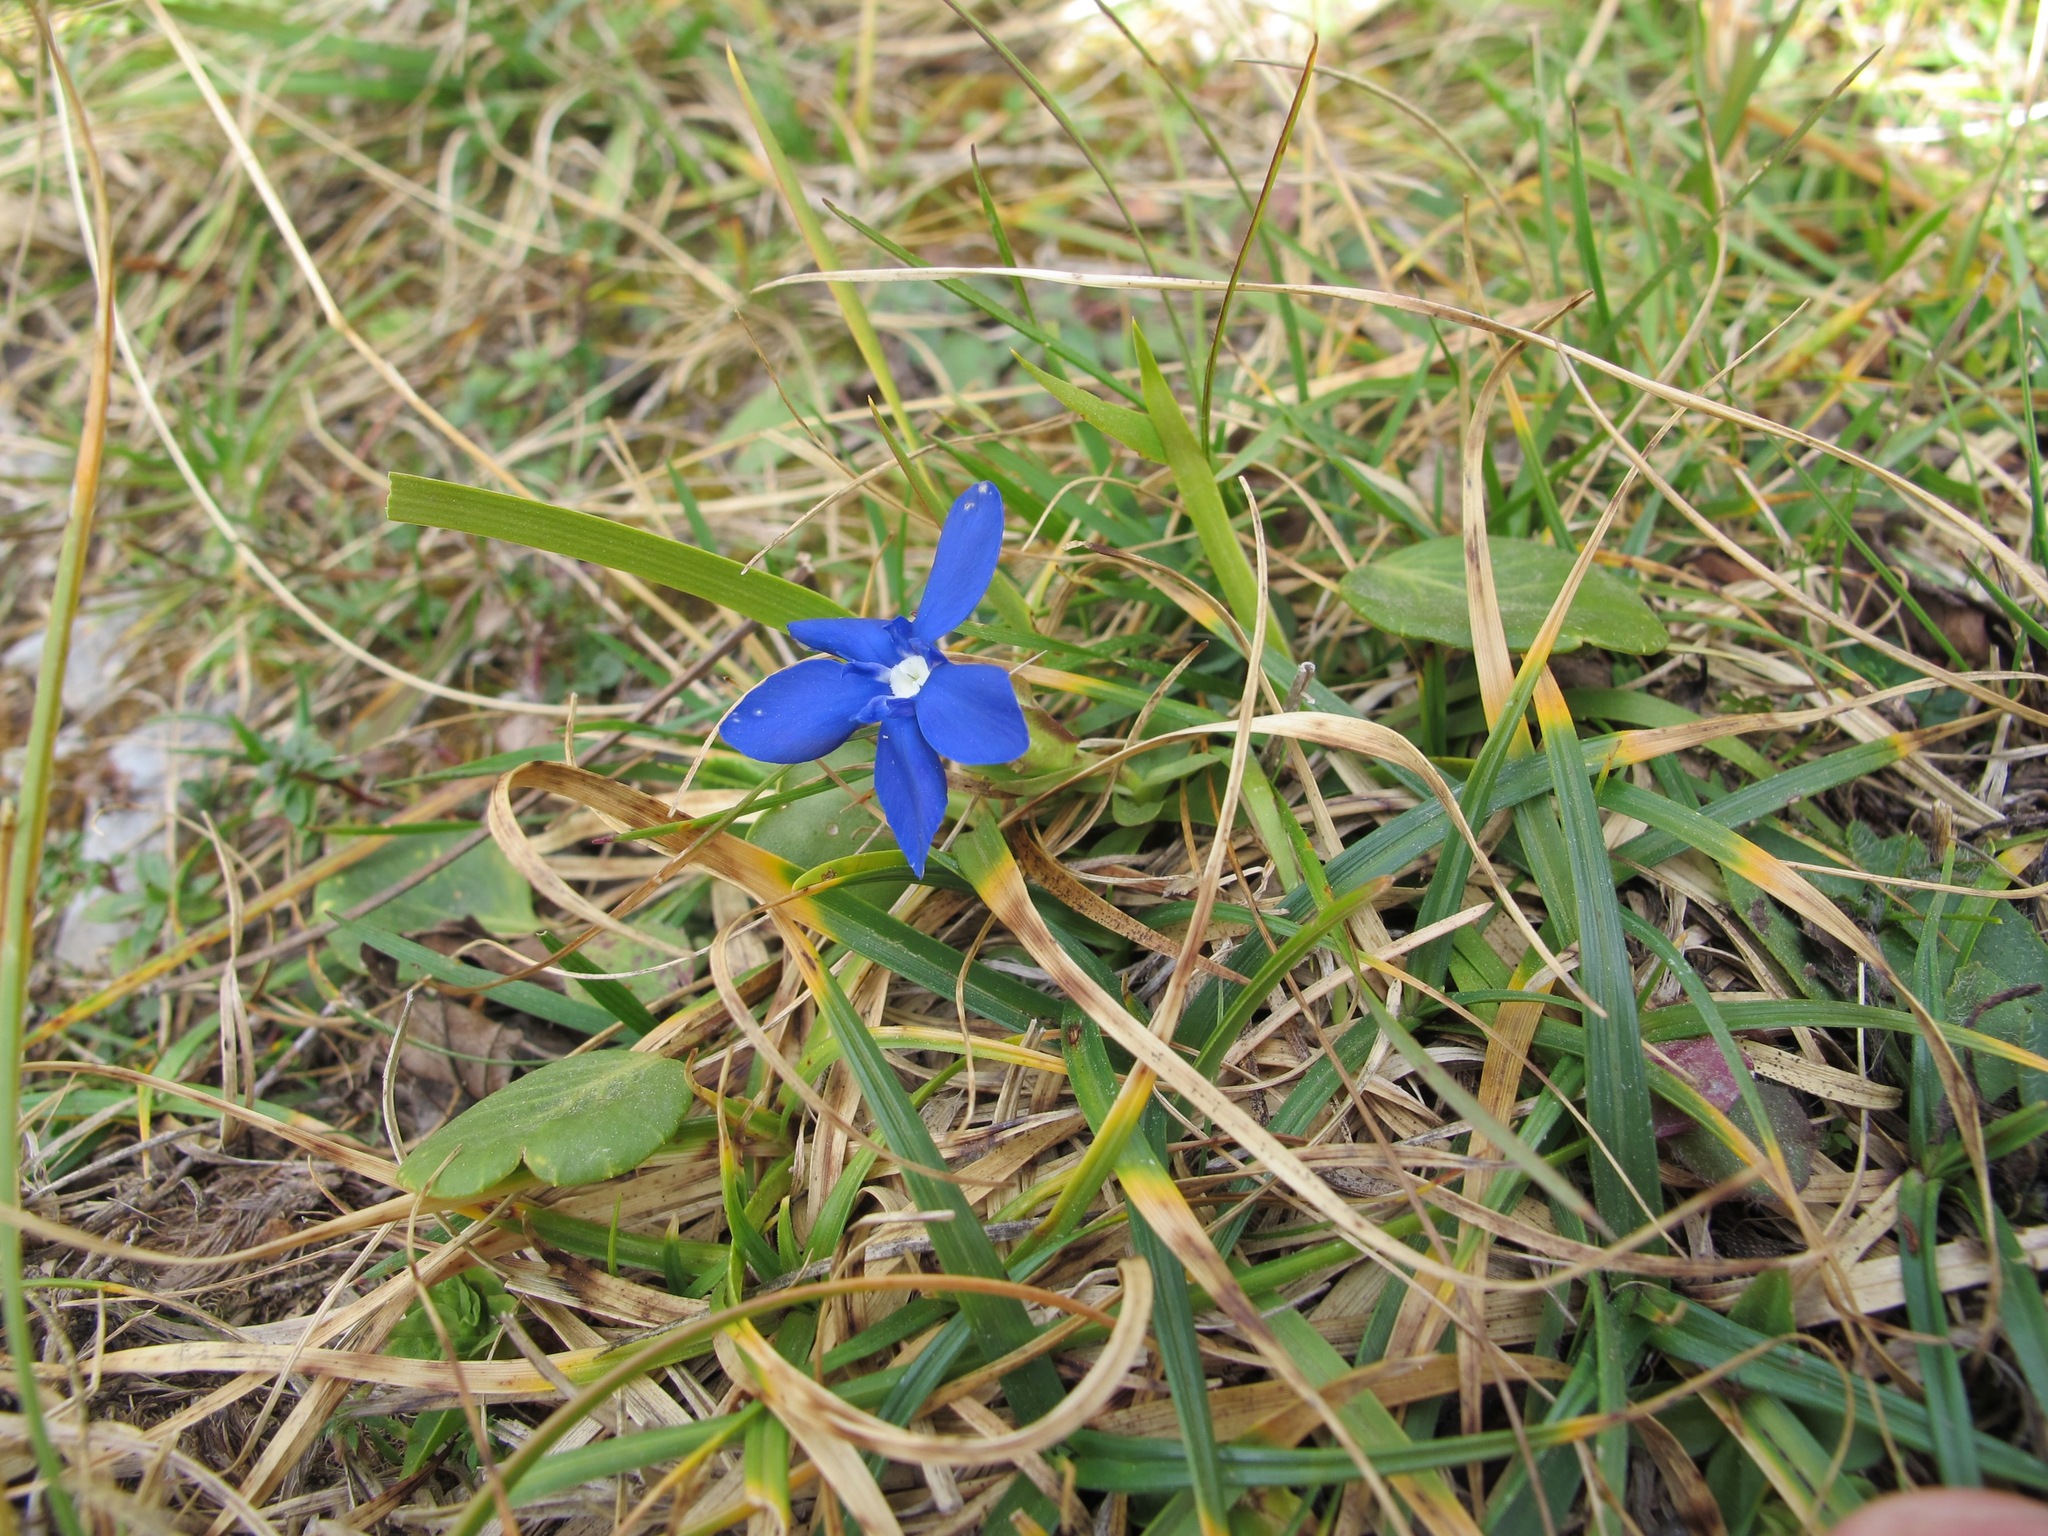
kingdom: Plantae
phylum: Tracheophyta
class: Magnoliopsida
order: Gentianales
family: Gentianaceae
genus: Gentiana
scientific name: Gentiana verna
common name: Spring gentian
